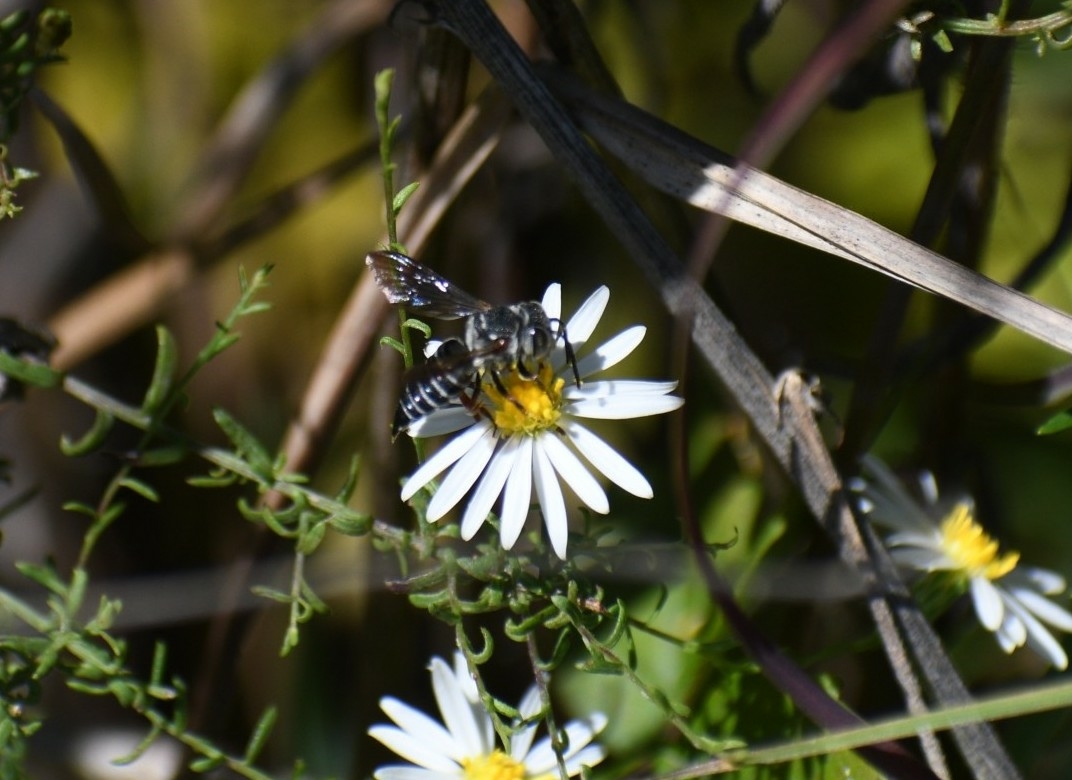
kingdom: Animalia
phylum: Arthropoda
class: Insecta
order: Hymenoptera
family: Megachilidae
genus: Coelioxys
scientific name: Coelioxys sayi
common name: Say's cuckoo leaf-cutter bee
